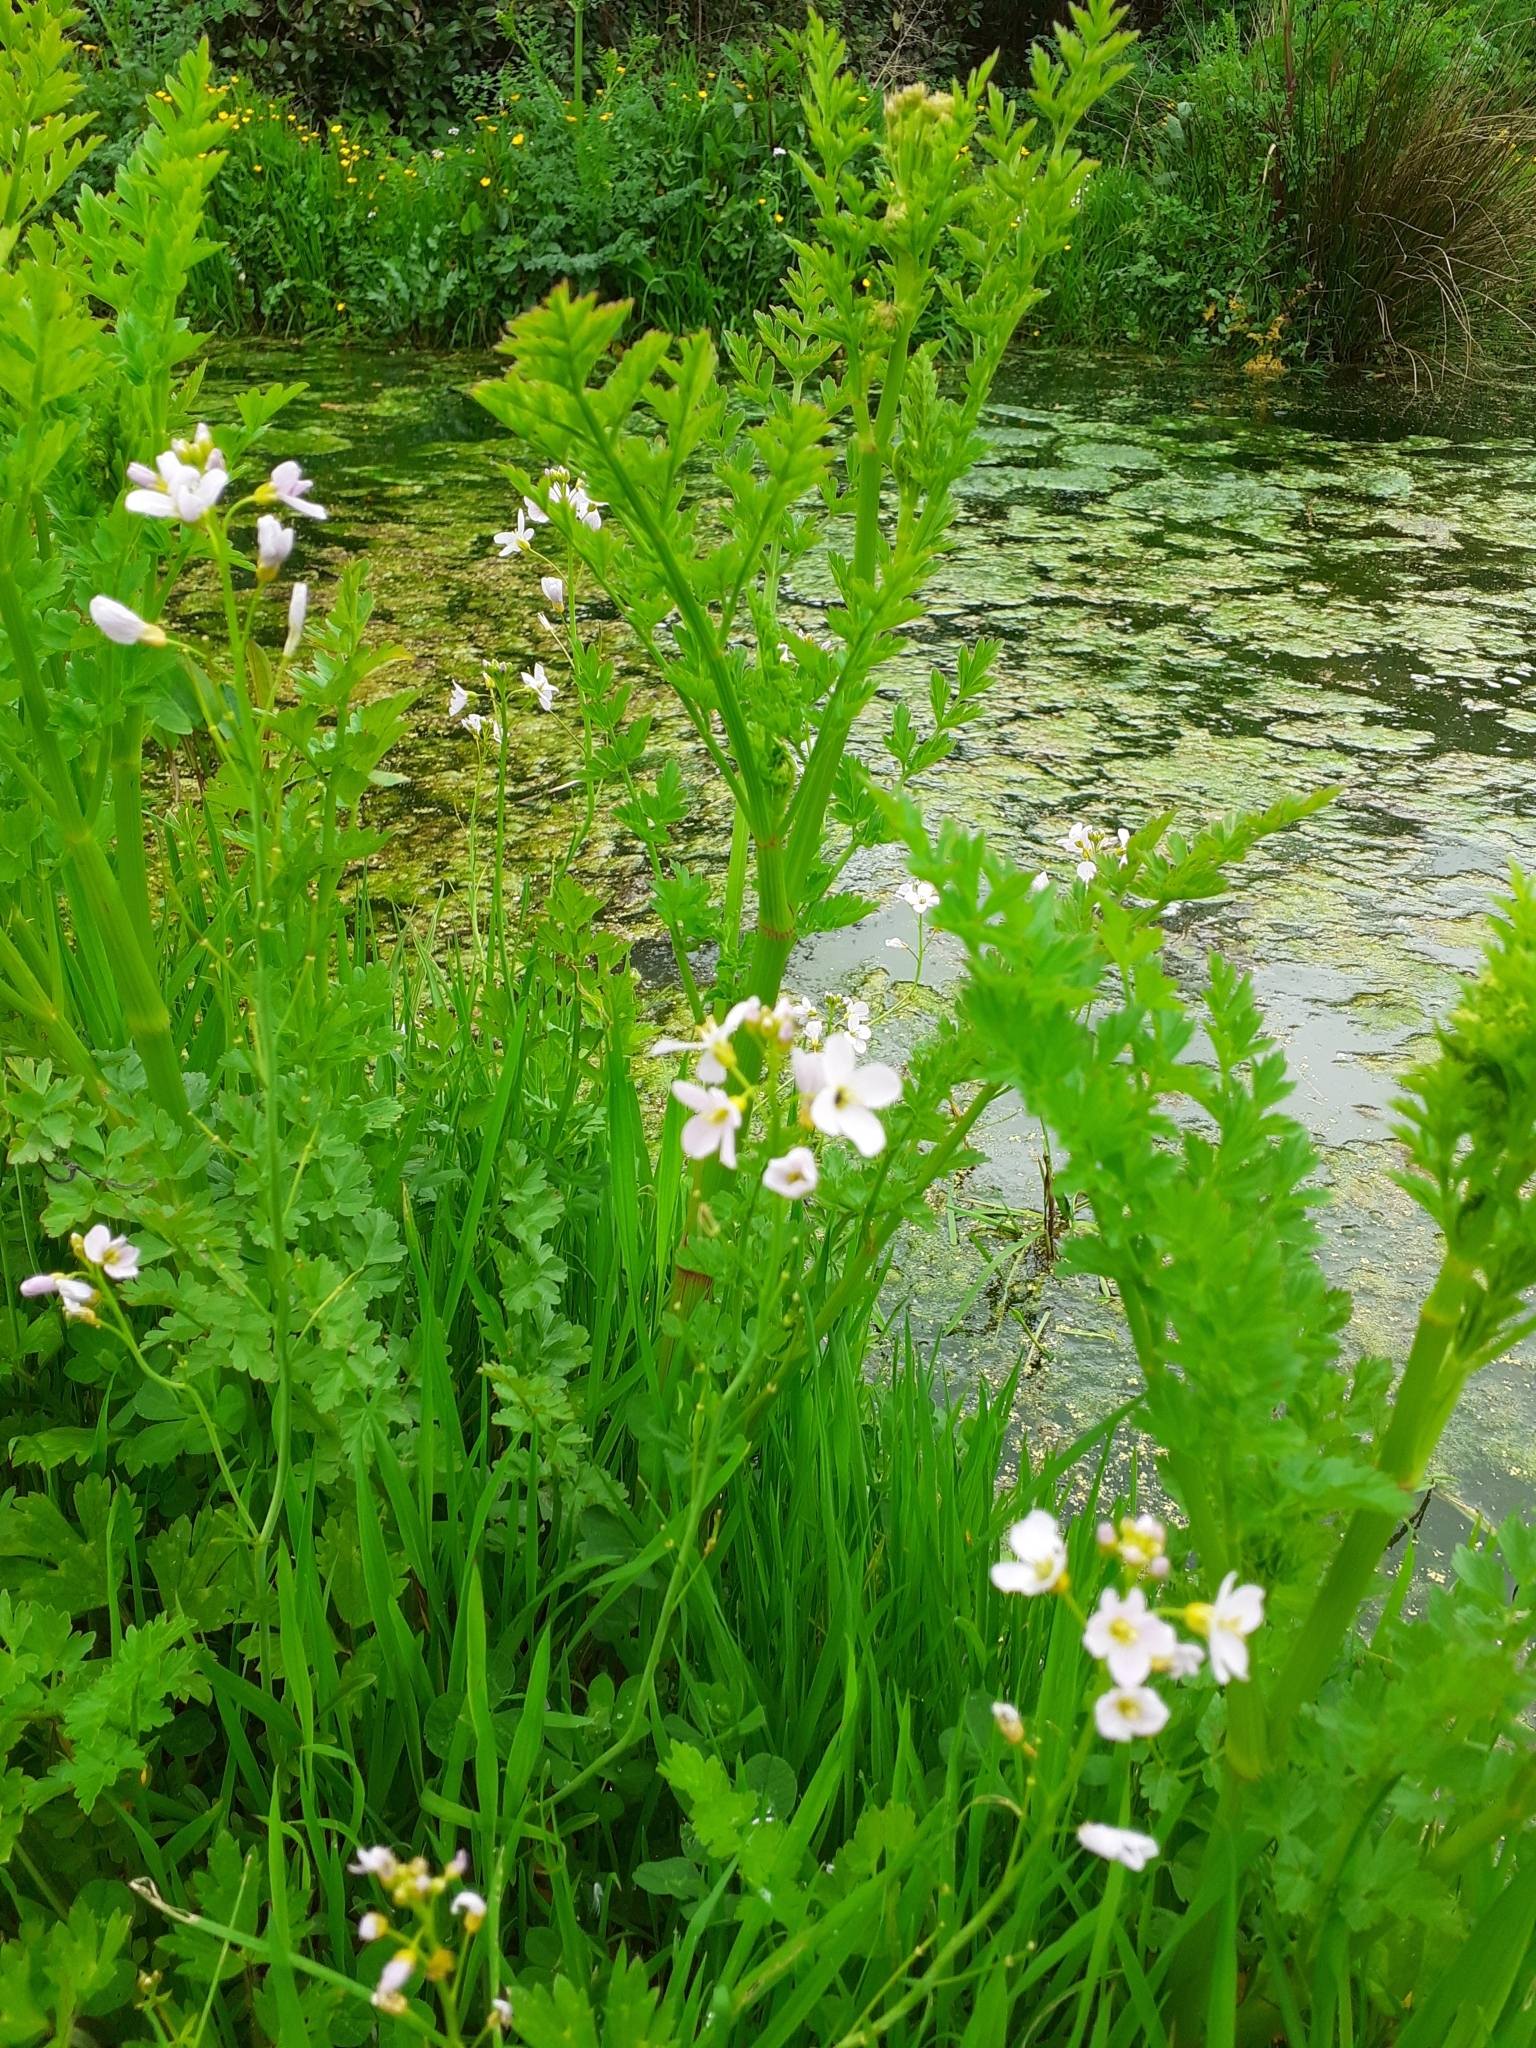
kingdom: Plantae
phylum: Tracheophyta
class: Magnoliopsida
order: Brassicales
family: Brassicaceae
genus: Cardamine
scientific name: Cardamine pratensis
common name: Cuckoo flower
